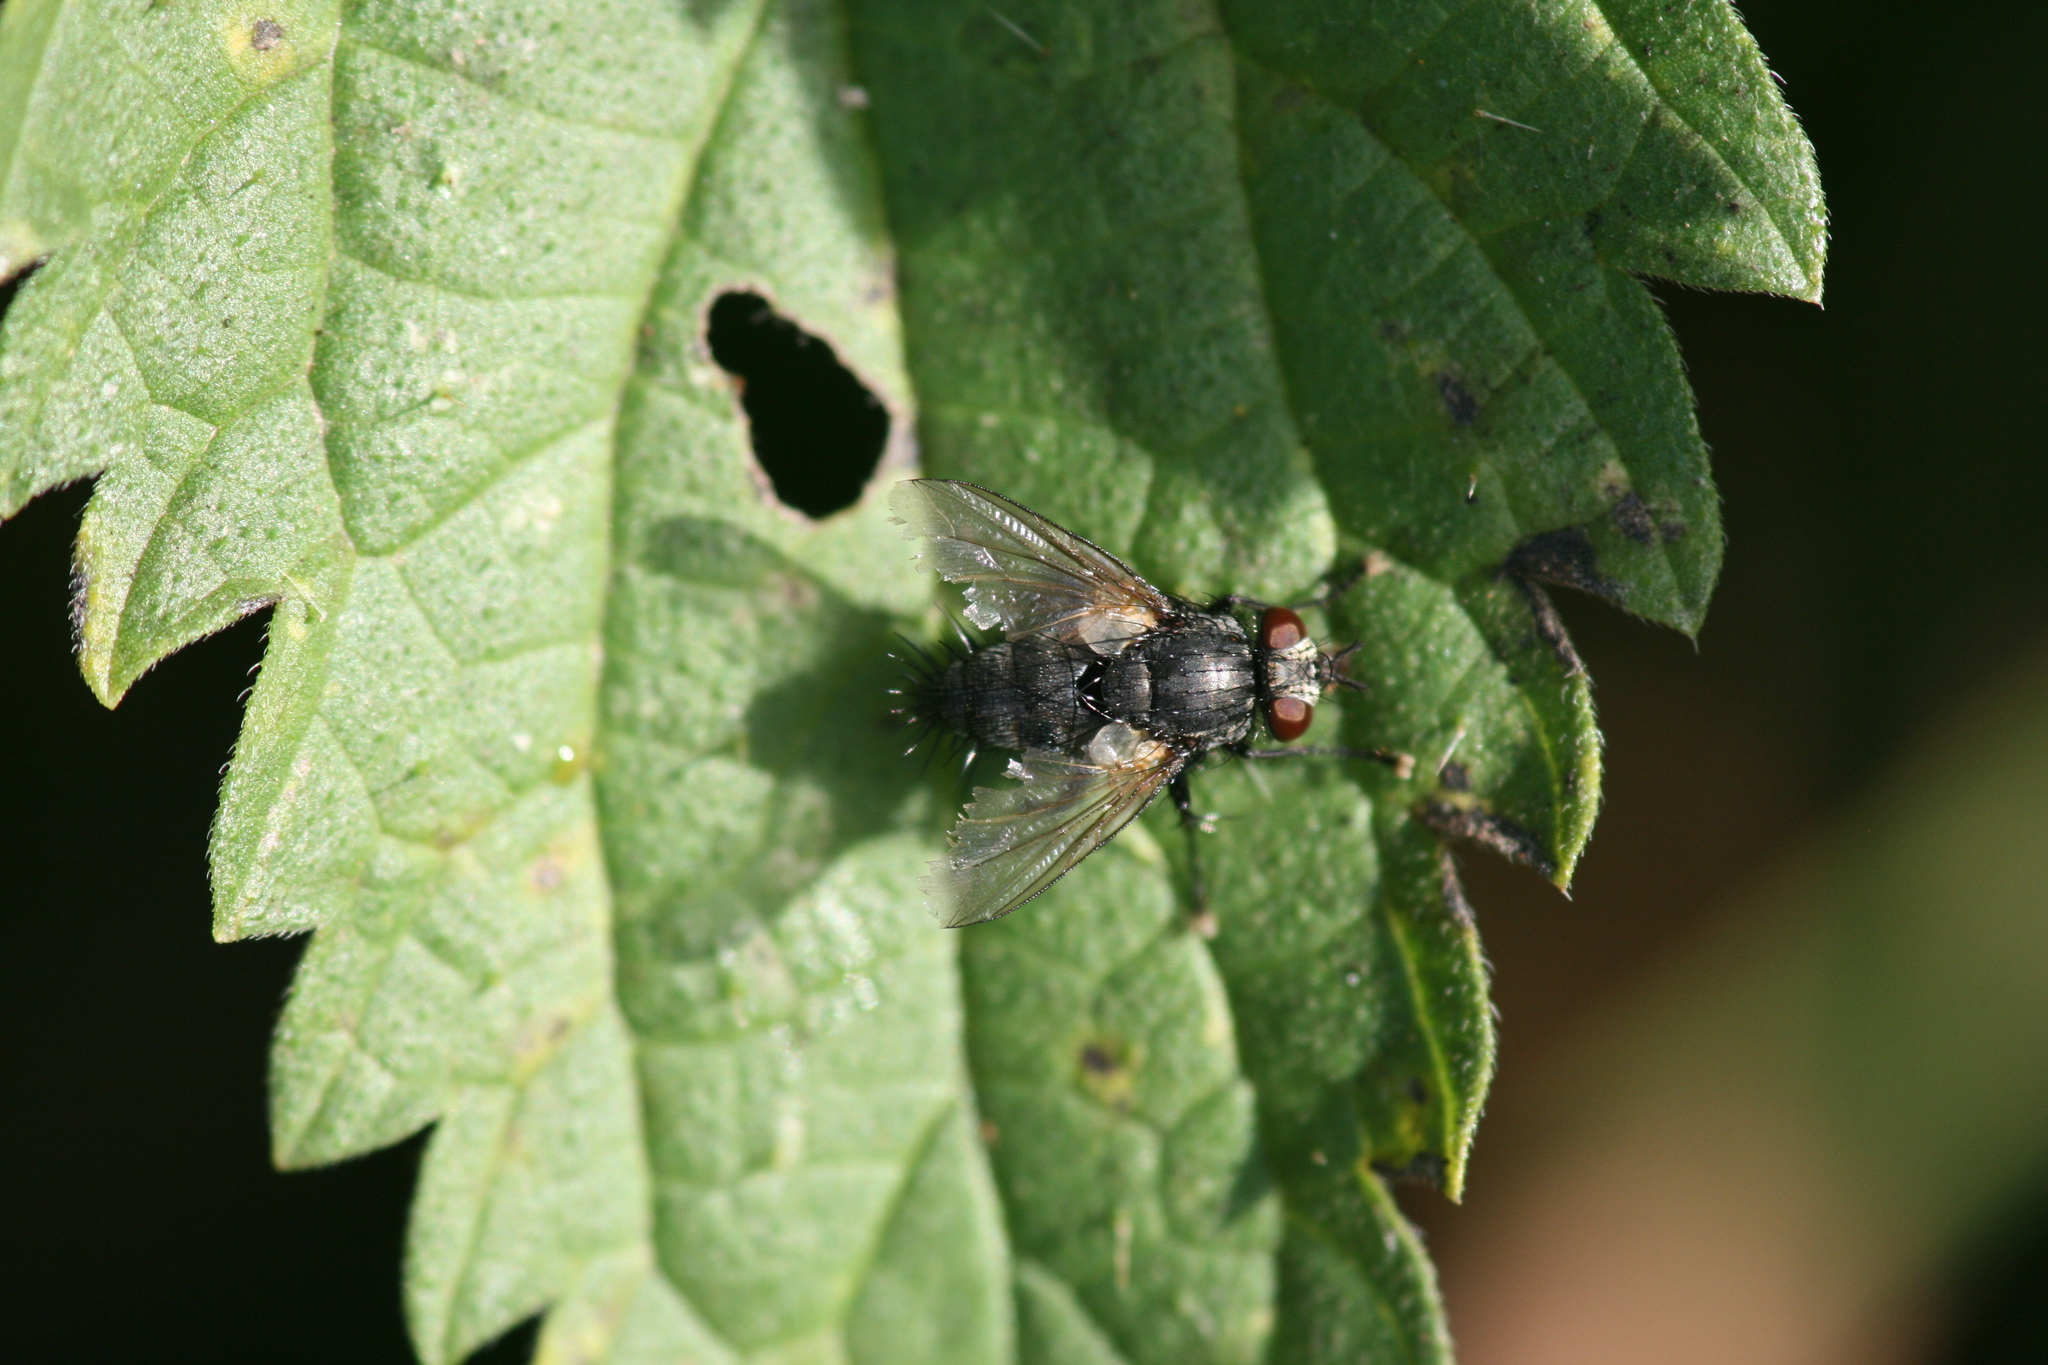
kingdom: Animalia
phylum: Arthropoda
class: Insecta
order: Diptera
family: Tachinidae
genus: Voria
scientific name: Voria ruralis
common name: Parasitic fly
